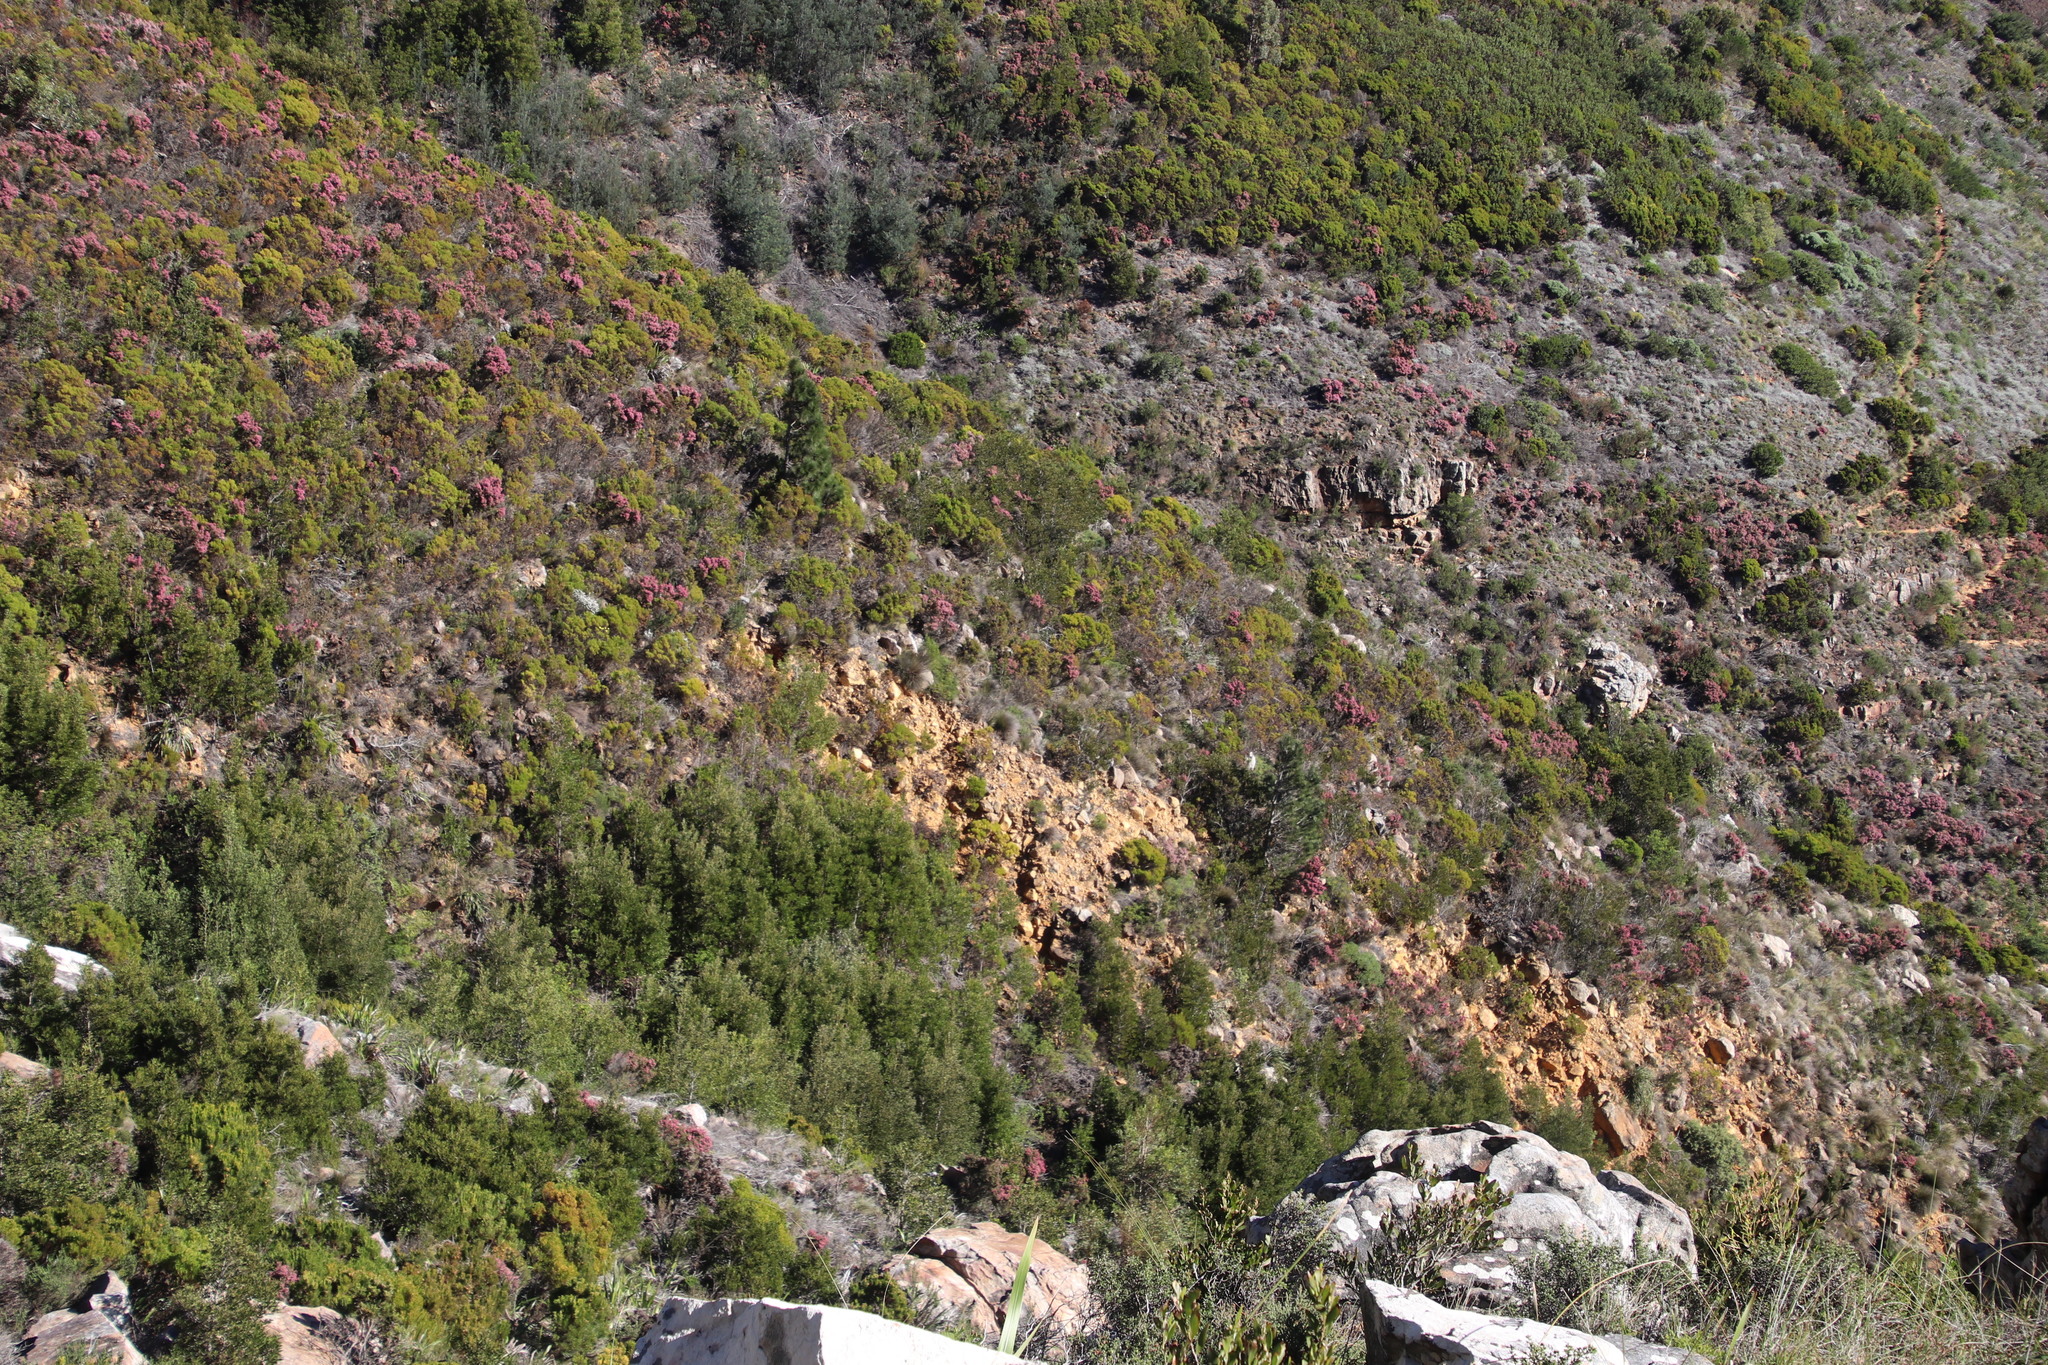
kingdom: Plantae
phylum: Tracheophyta
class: Magnoliopsida
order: Ericales
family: Ericaceae
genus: Erica
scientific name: Erica baccans
